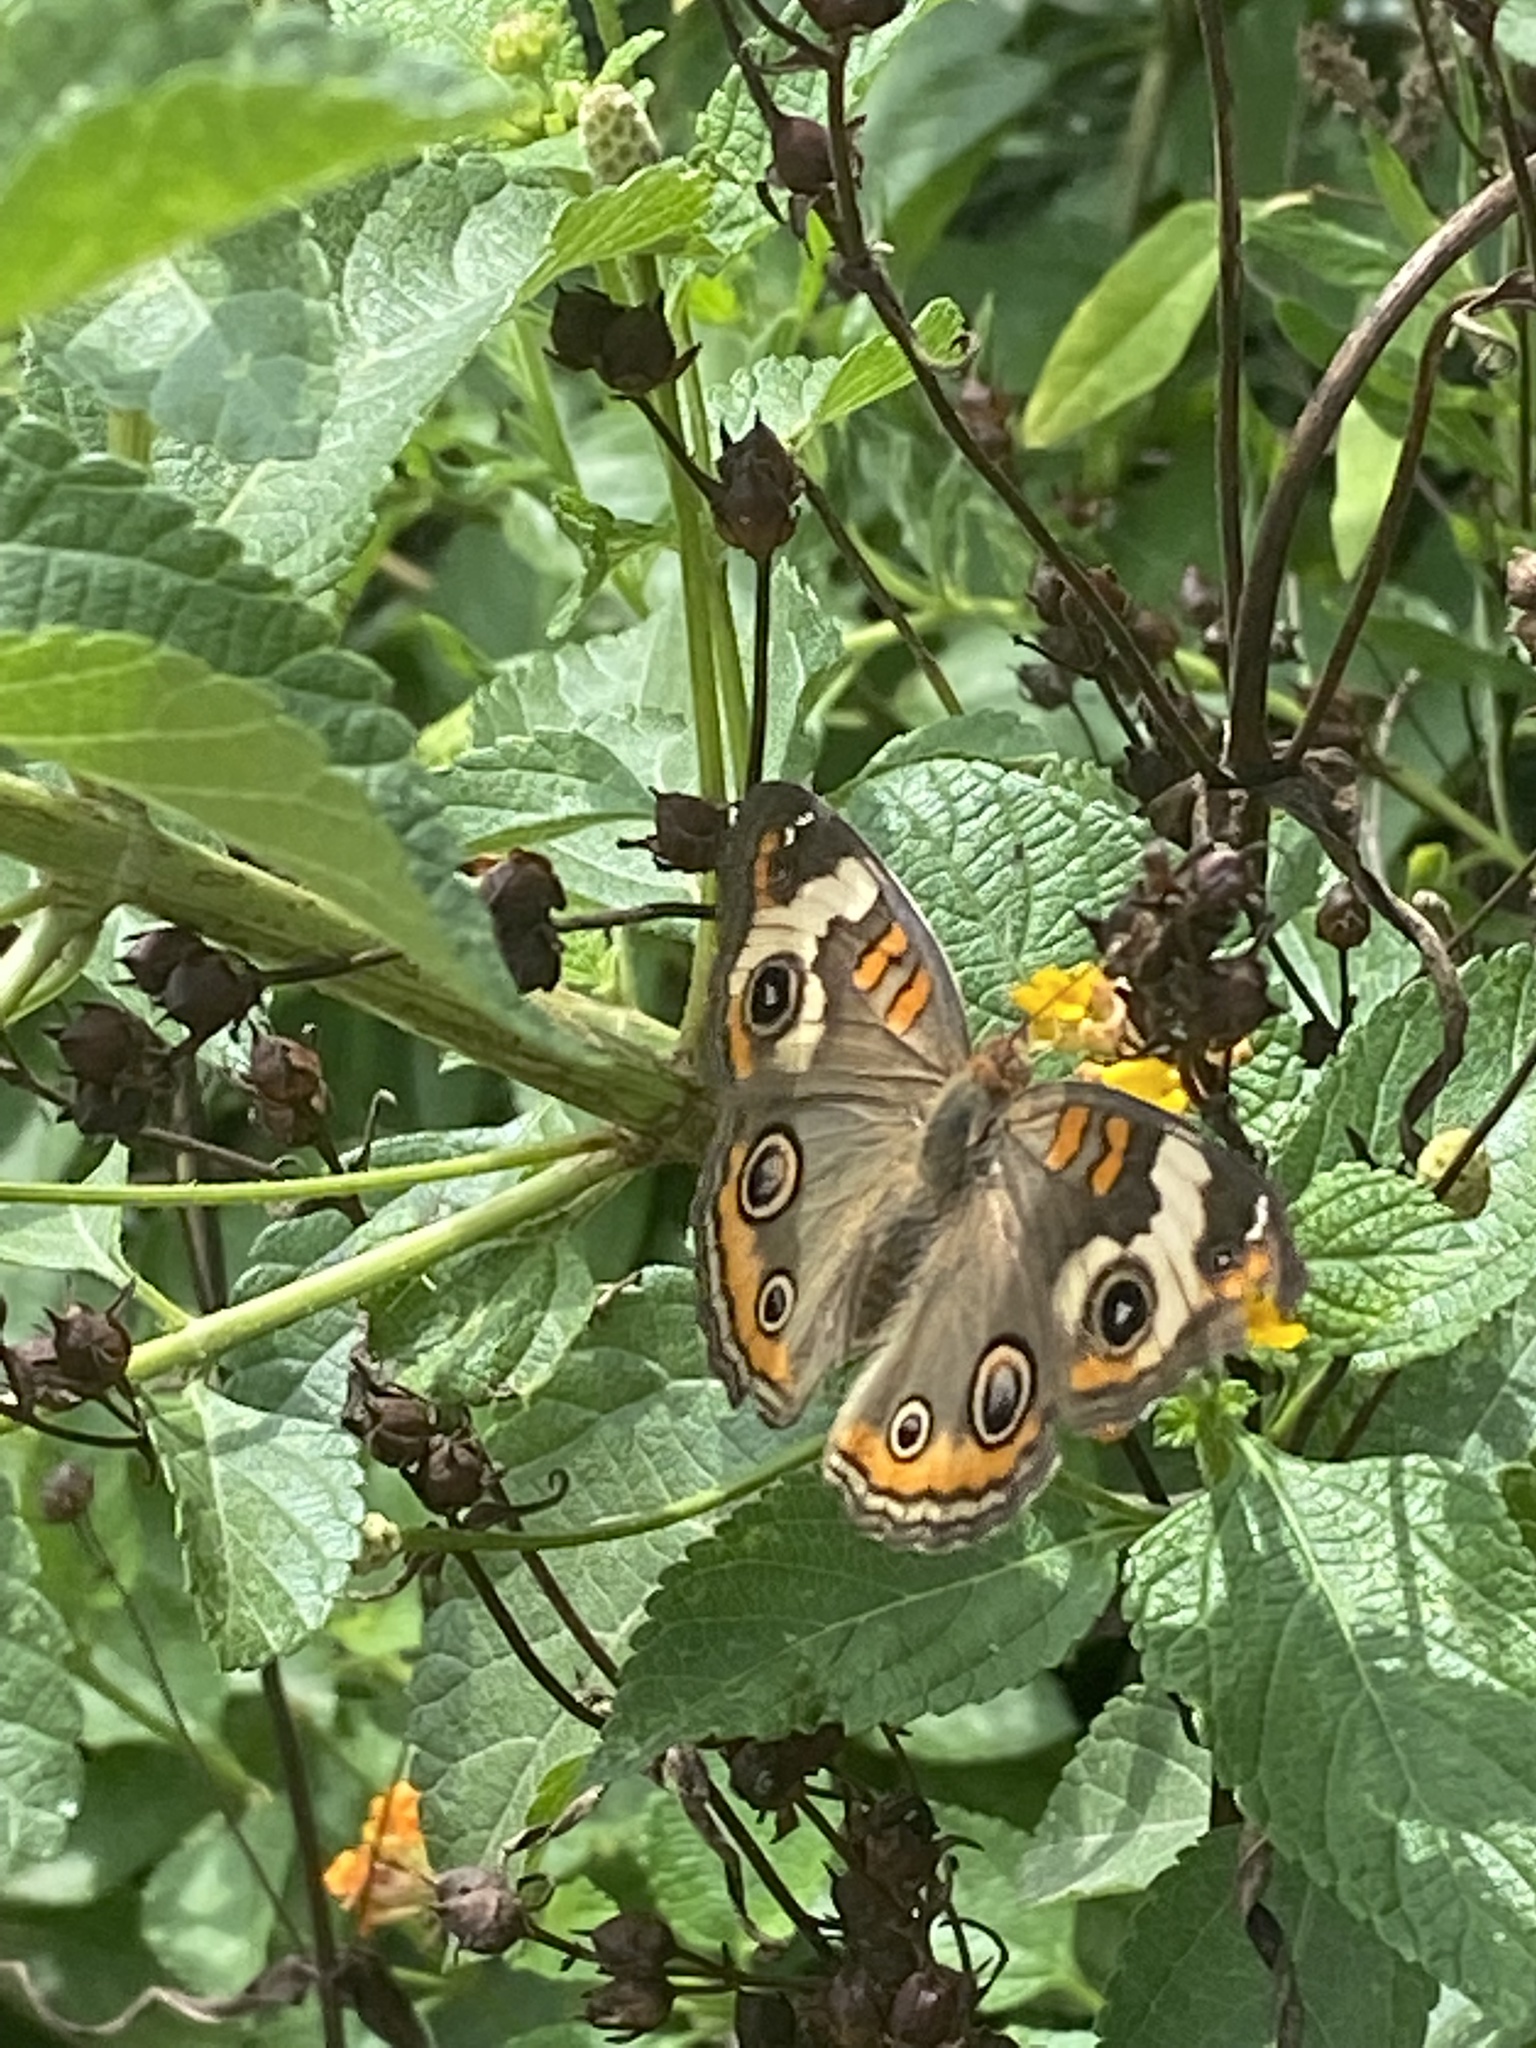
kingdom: Animalia
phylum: Arthropoda
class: Insecta
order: Lepidoptera
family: Nymphalidae
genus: Junonia
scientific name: Junonia coenia
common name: Common buckeye
